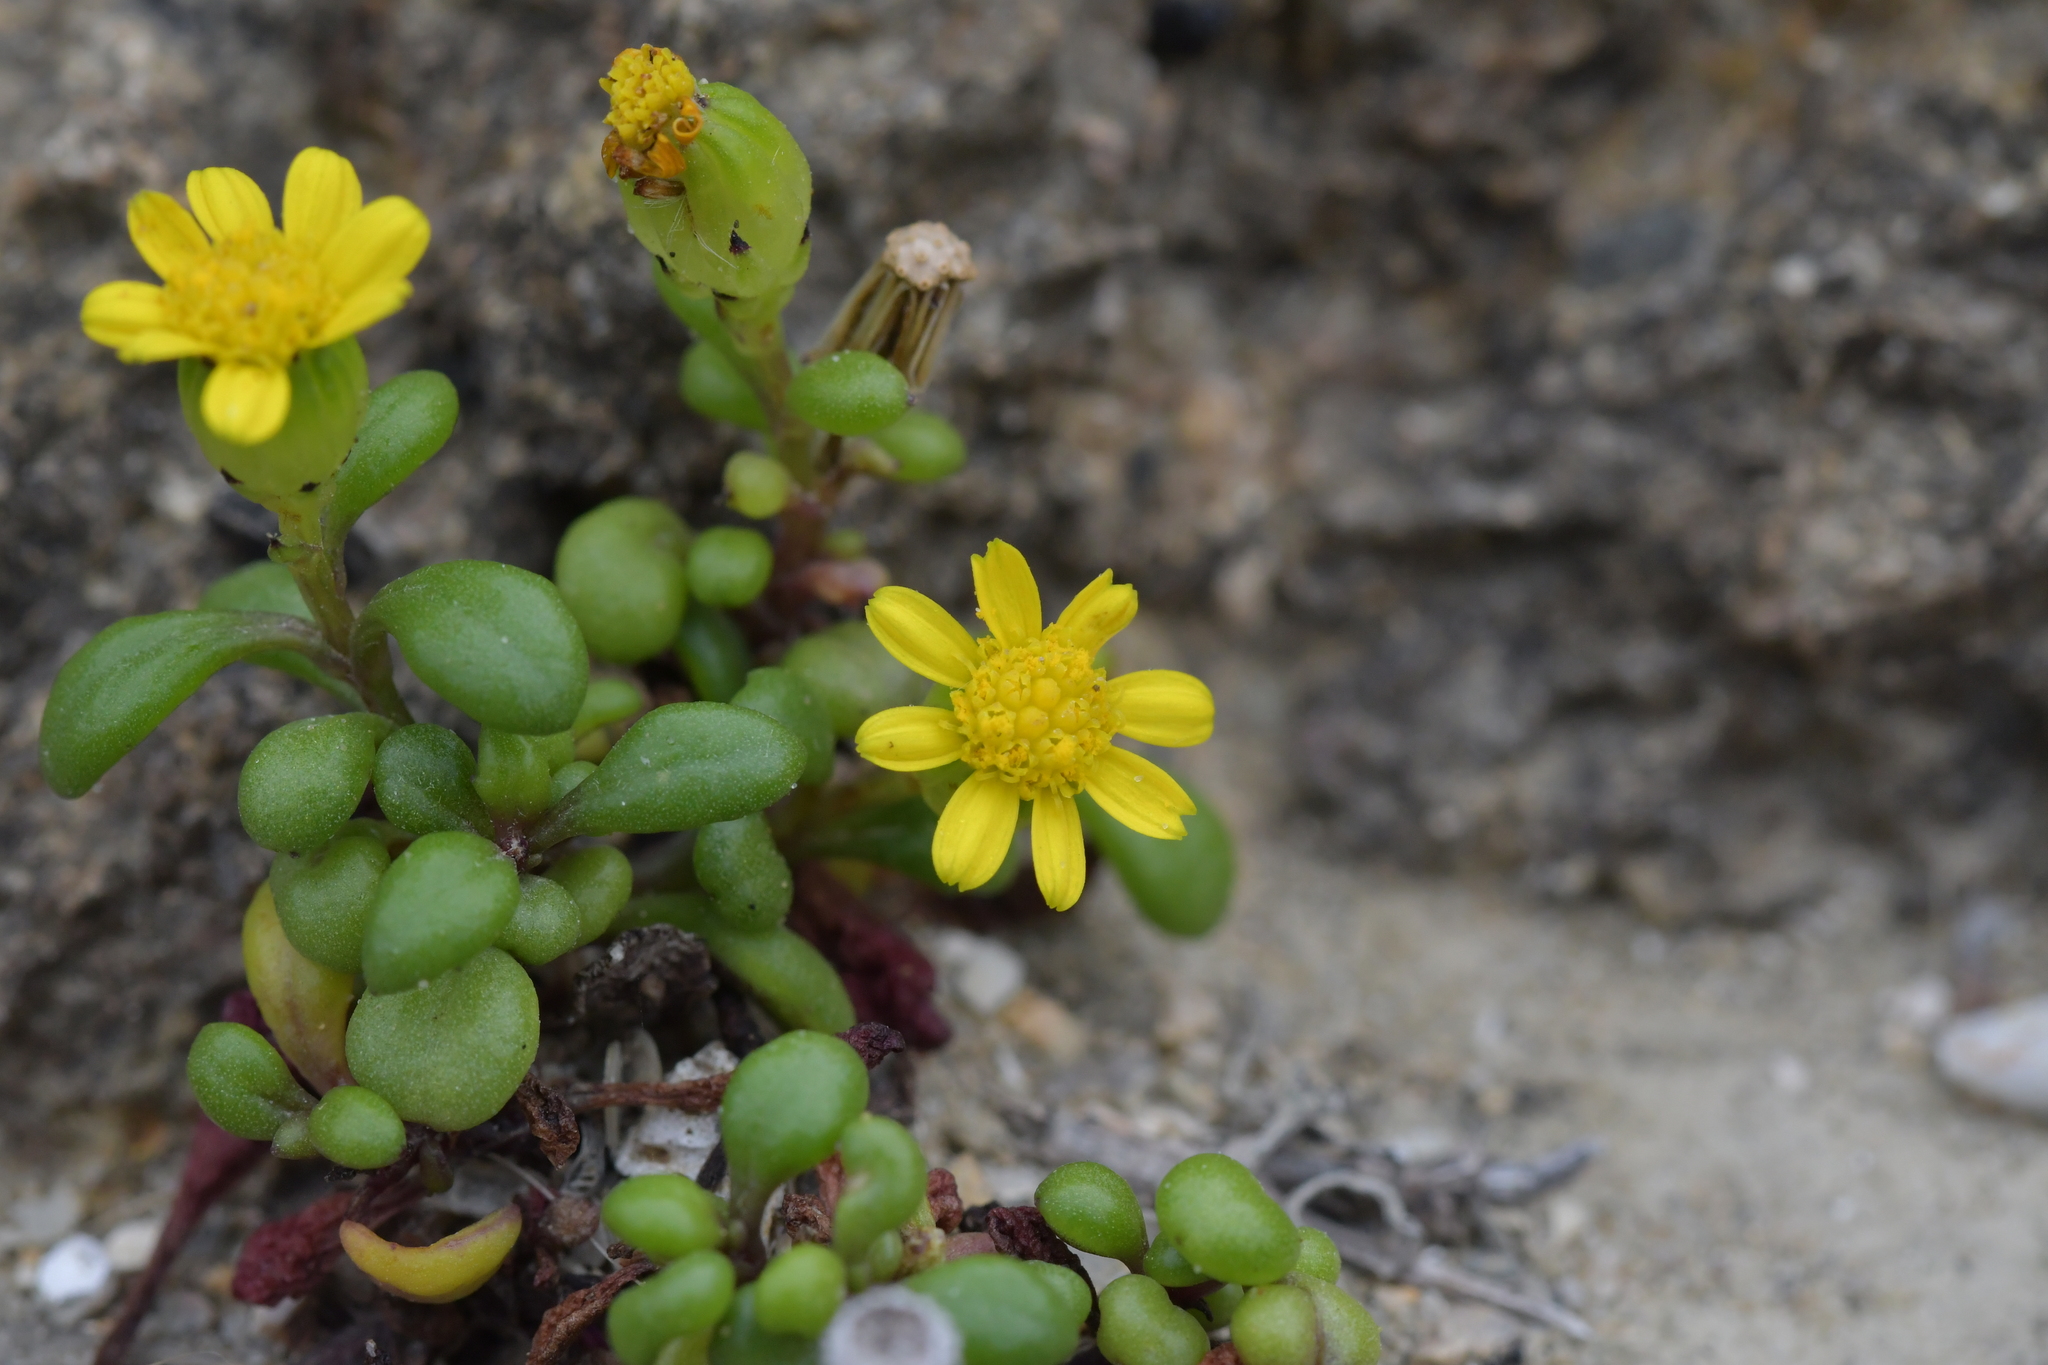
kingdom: Plantae
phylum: Tracheophyta
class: Magnoliopsida
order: Asterales
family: Asteraceae
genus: Senecio
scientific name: Senecio lautus
